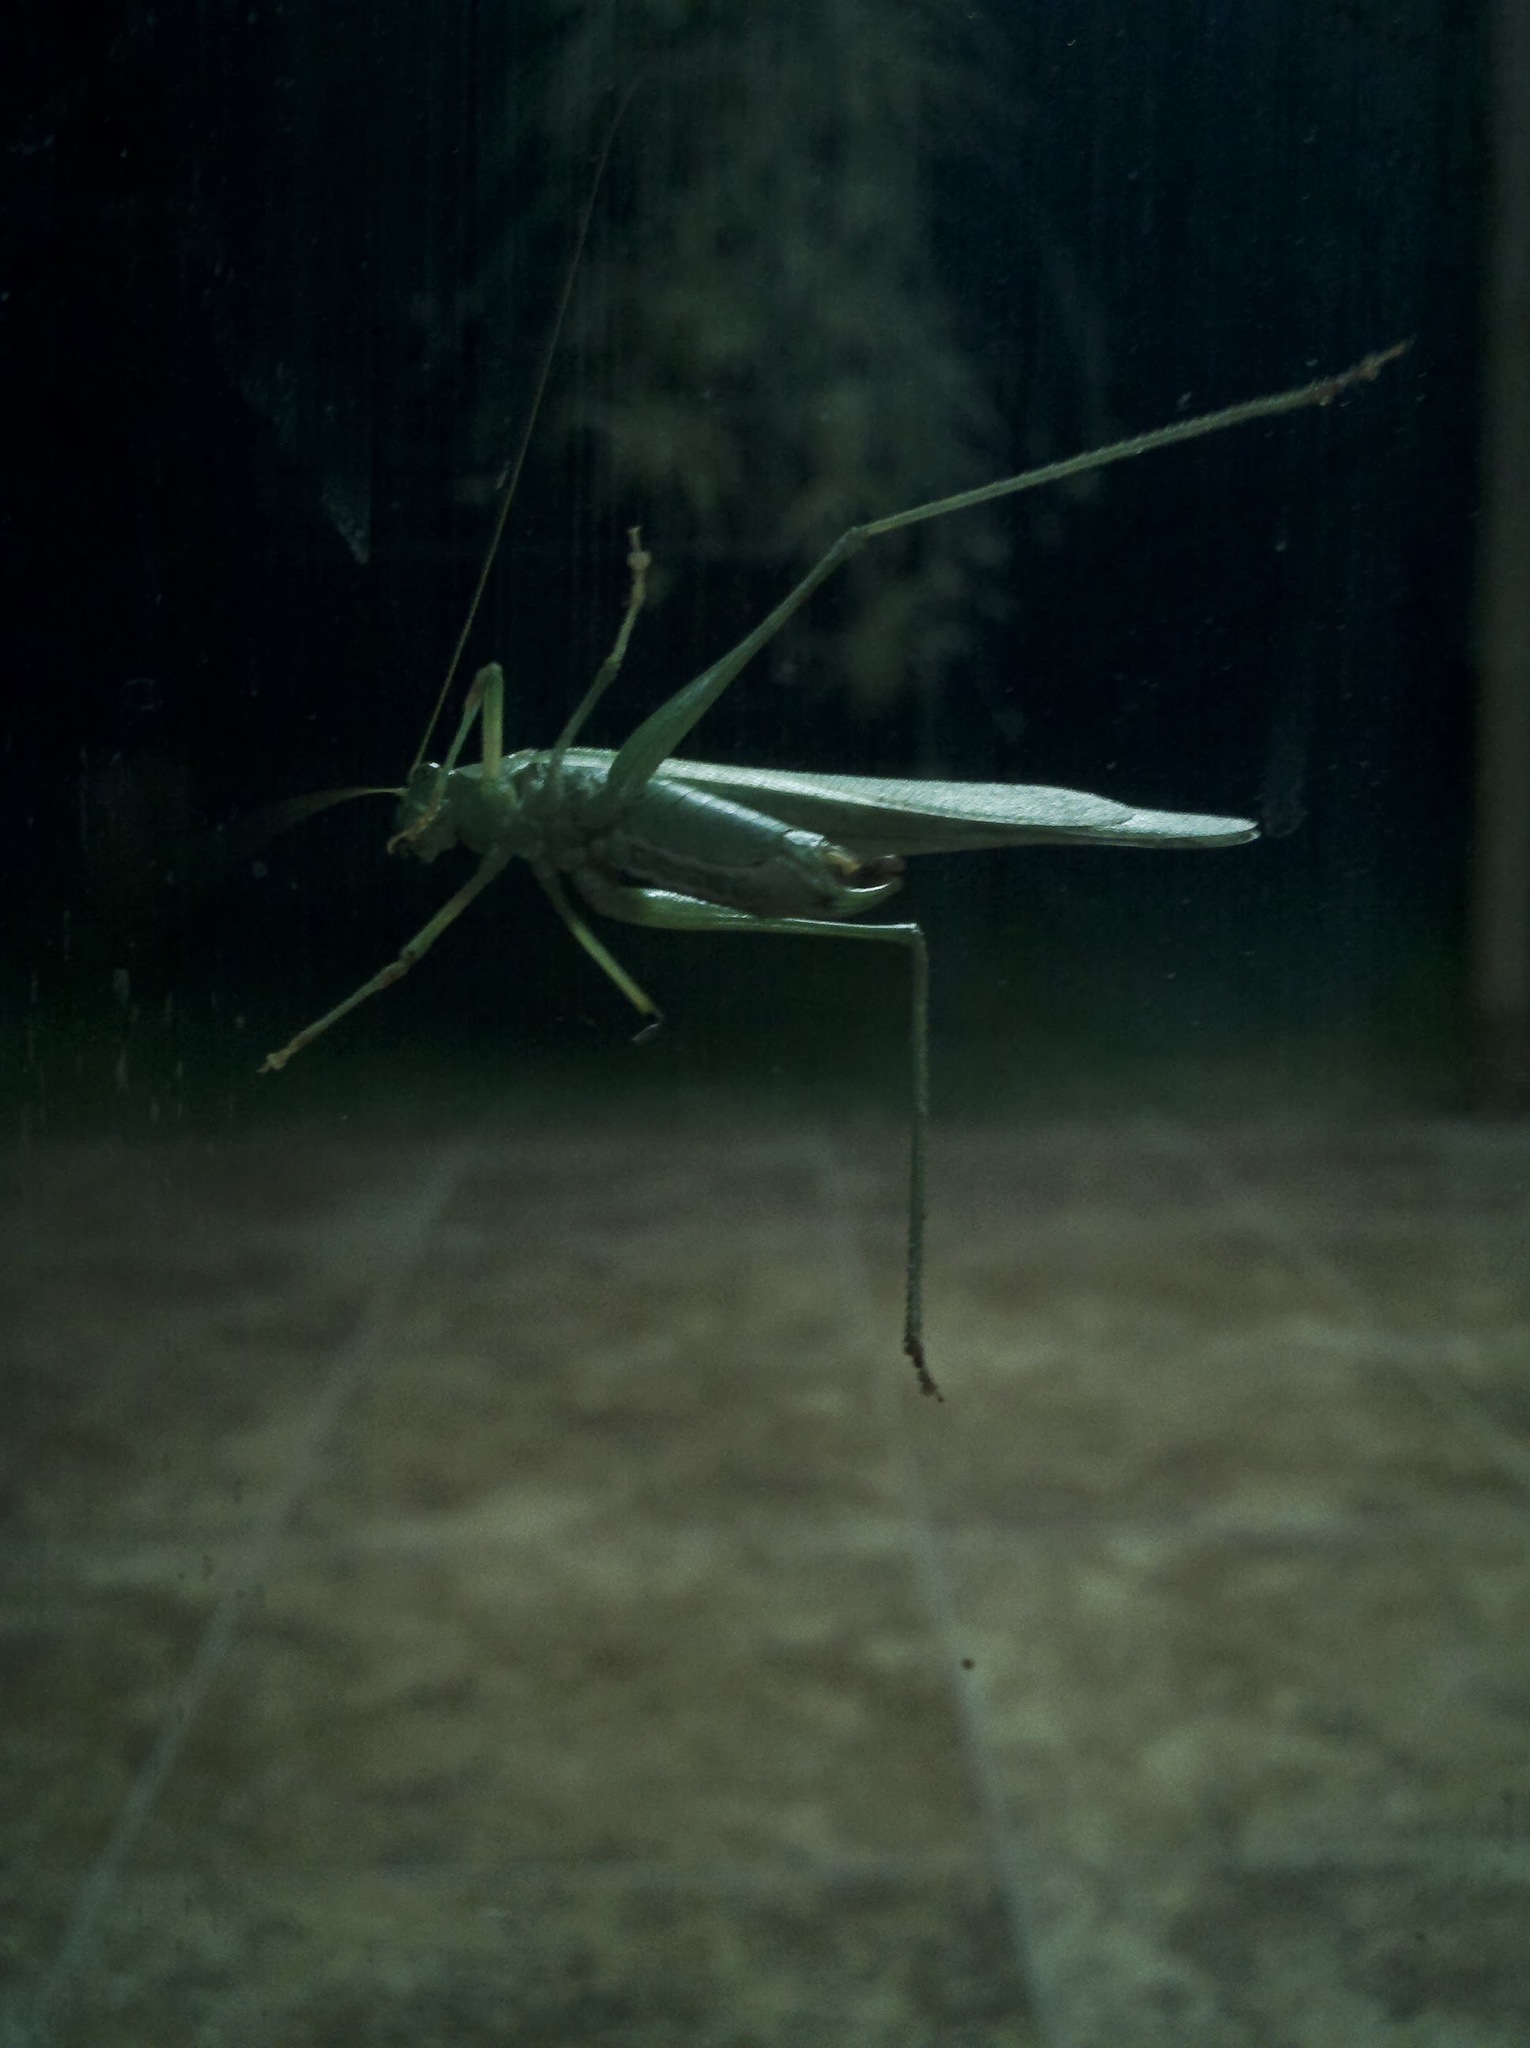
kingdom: Animalia
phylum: Arthropoda
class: Insecta
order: Orthoptera
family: Tettigoniidae
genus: Scudderia
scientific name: Scudderia furcata
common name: Fork-tailed bush katydid
